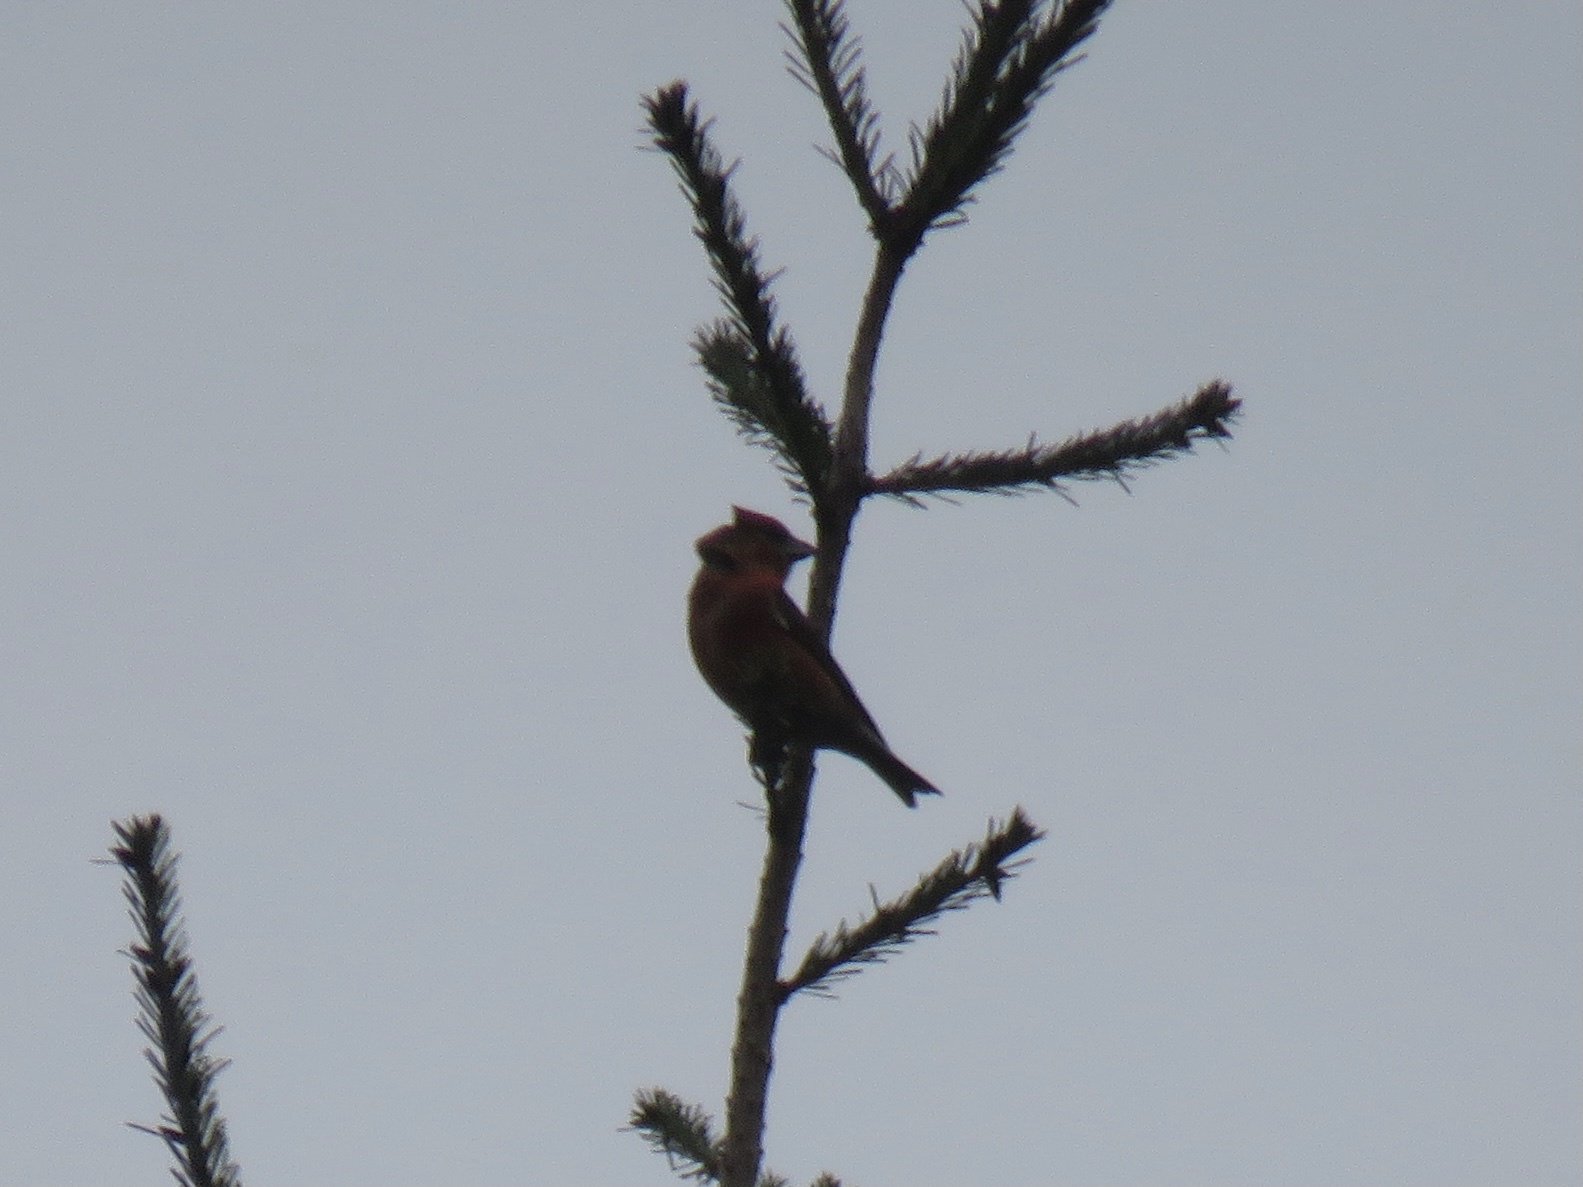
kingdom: Animalia
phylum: Chordata
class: Aves
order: Passeriformes
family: Fringillidae
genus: Loxia
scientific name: Loxia curvirostra
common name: Red crossbill
